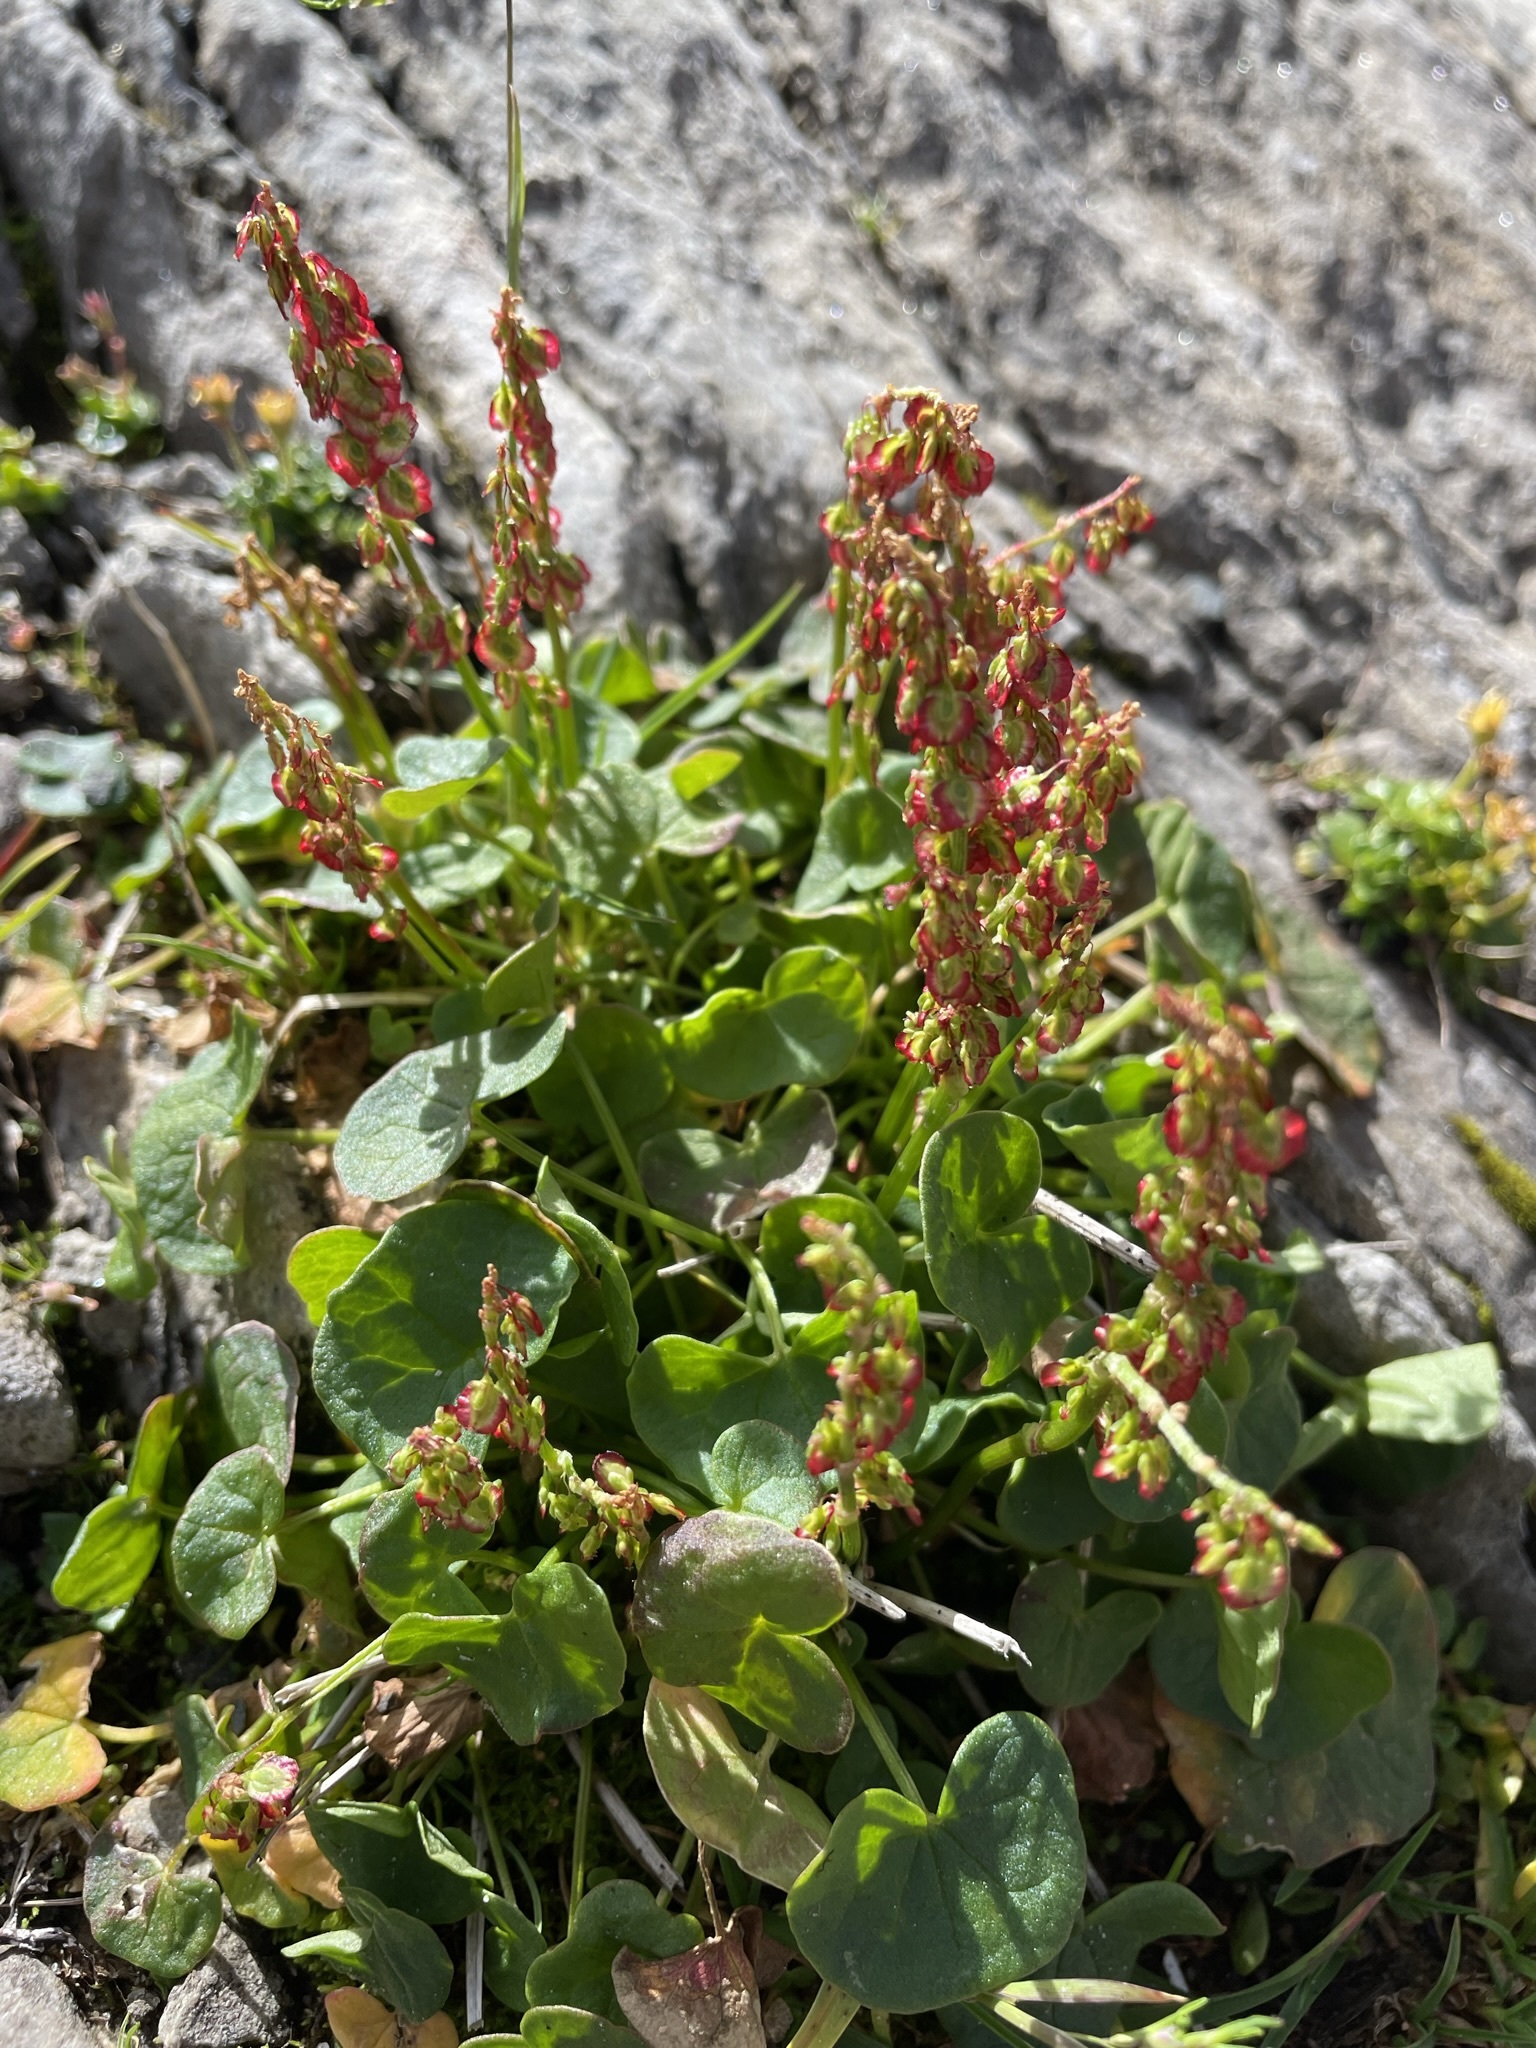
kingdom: Plantae
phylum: Tracheophyta
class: Magnoliopsida
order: Caryophyllales
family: Polygonaceae
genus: Oxyria
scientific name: Oxyria digyna
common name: Alpine mountain-sorrel
